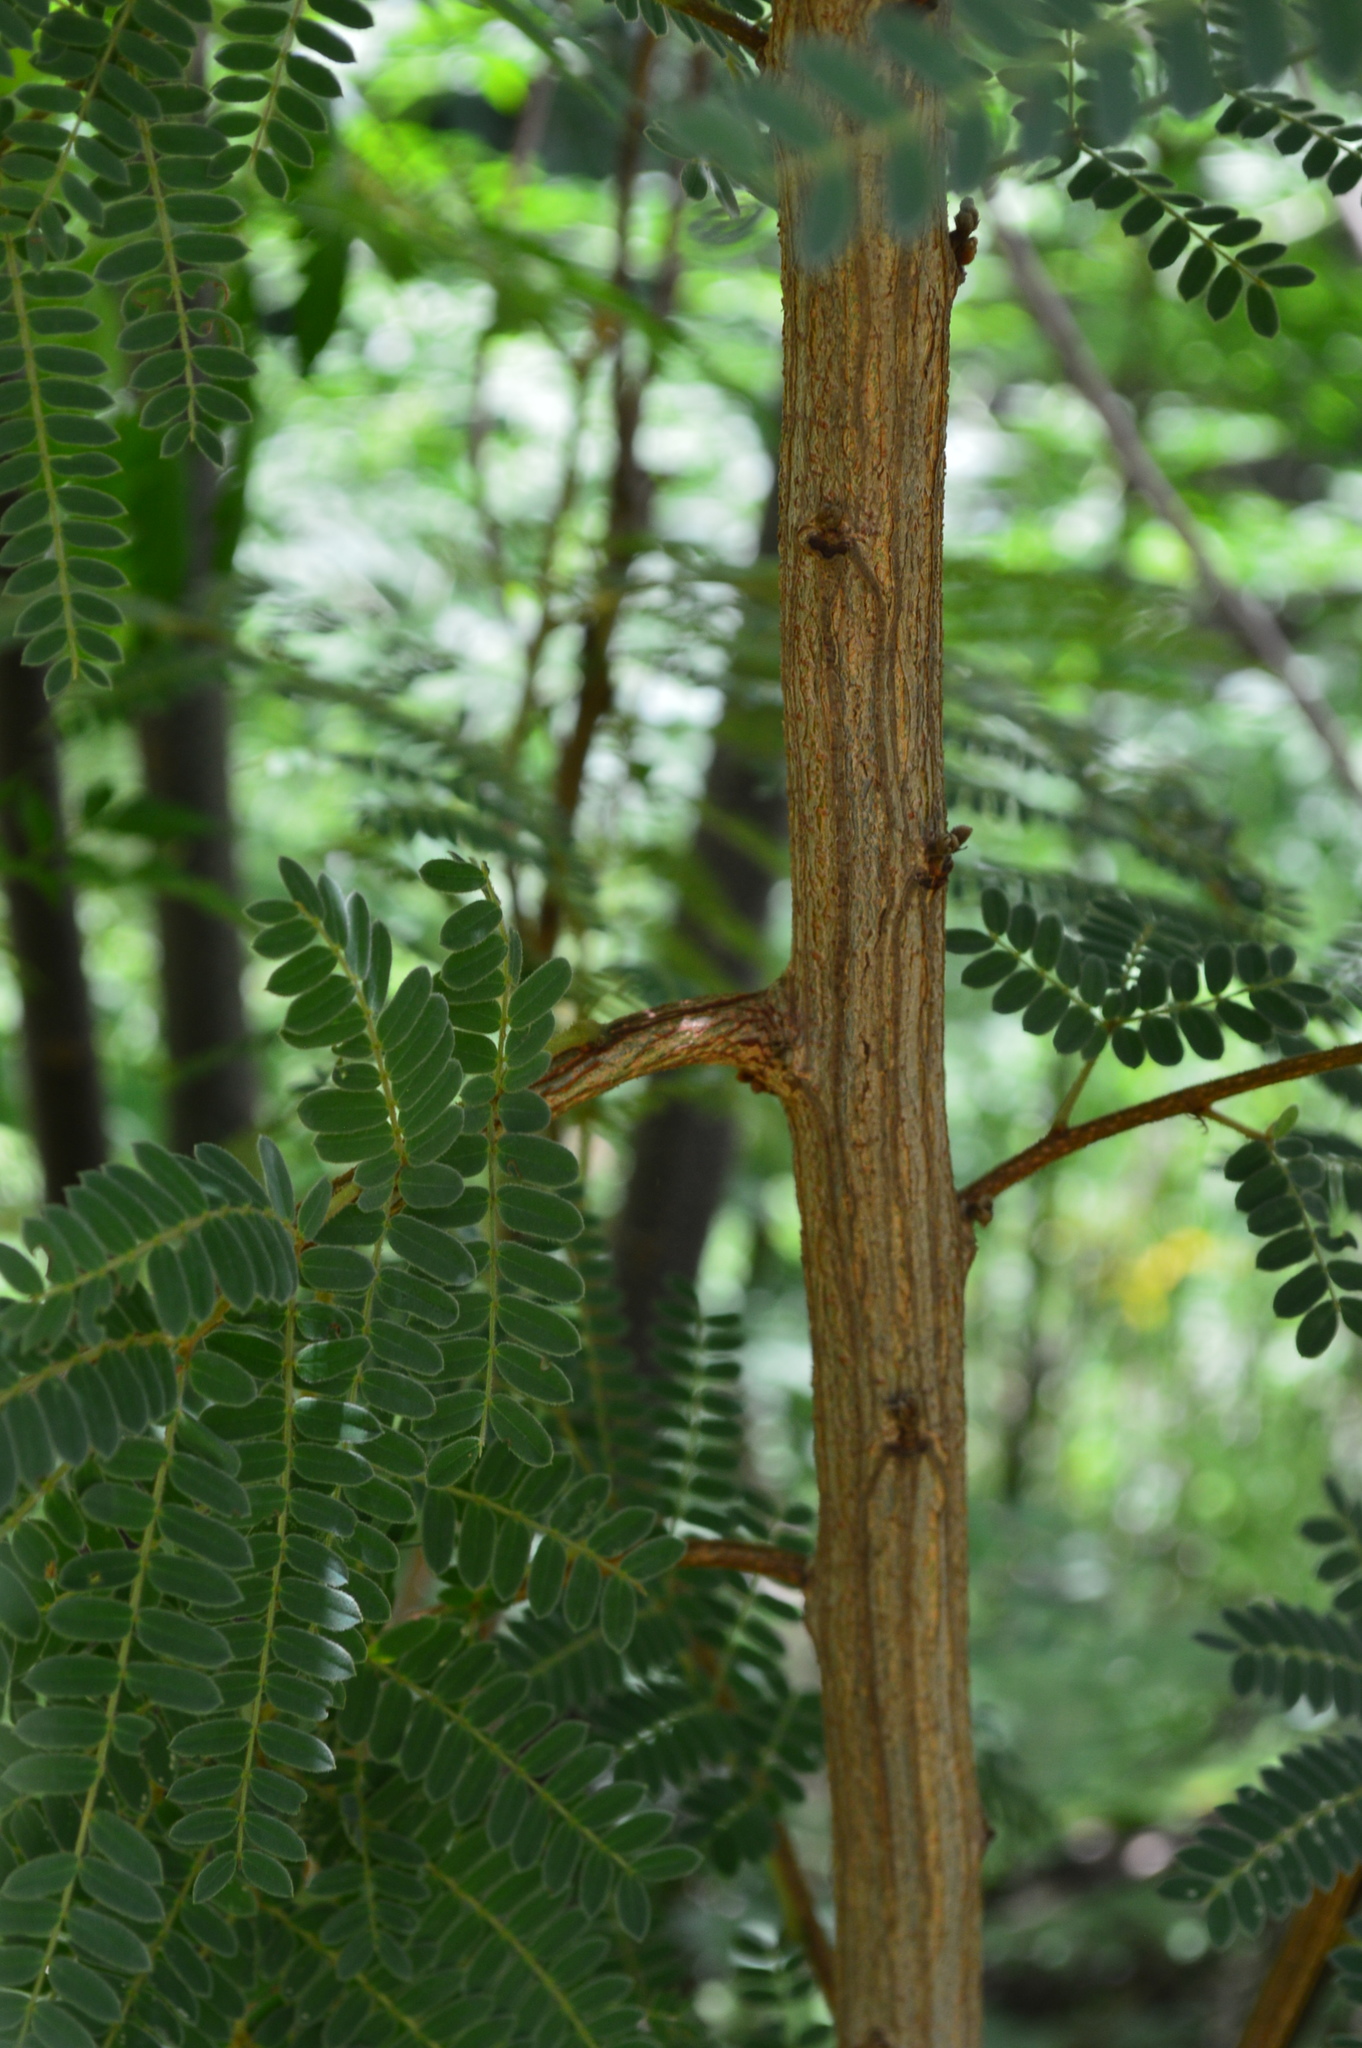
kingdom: Plantae
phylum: Tracheophyta
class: Magnoliopsida
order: Fabales
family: Fabaceae
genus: Peltophorum
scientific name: Peltophorum africanum
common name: African black wattle
